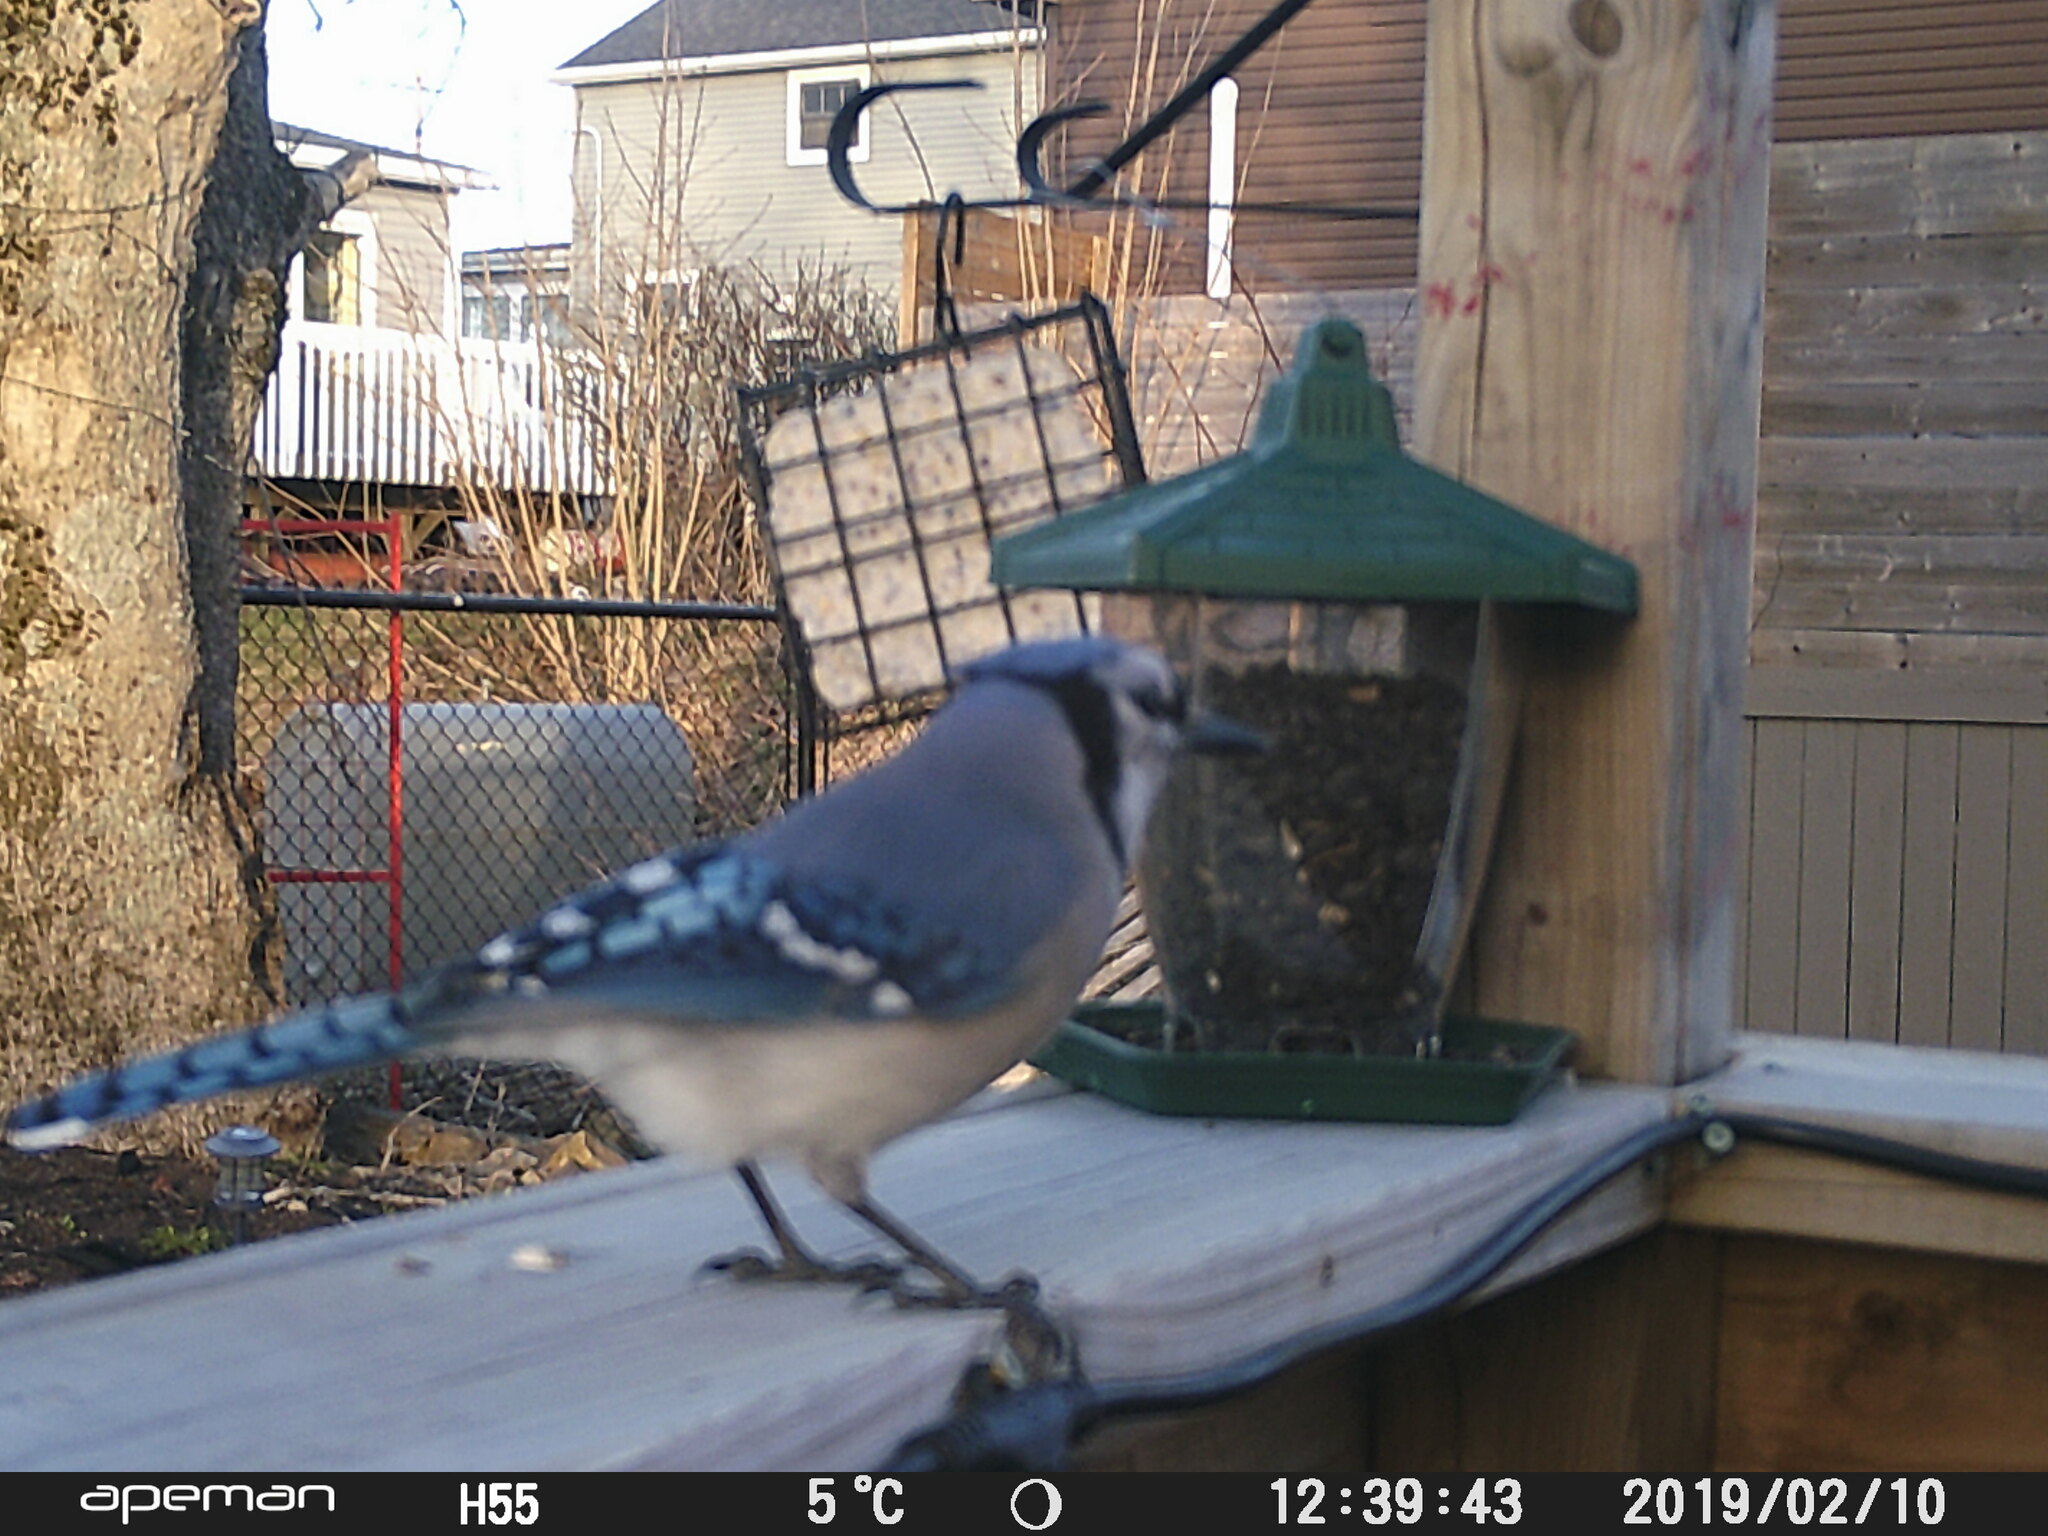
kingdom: Animalia
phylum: Chordata
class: Aves
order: Passeriformes
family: Corvidae
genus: Cyanocitta
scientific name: Cyanocitta cristata
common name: Blue jay
